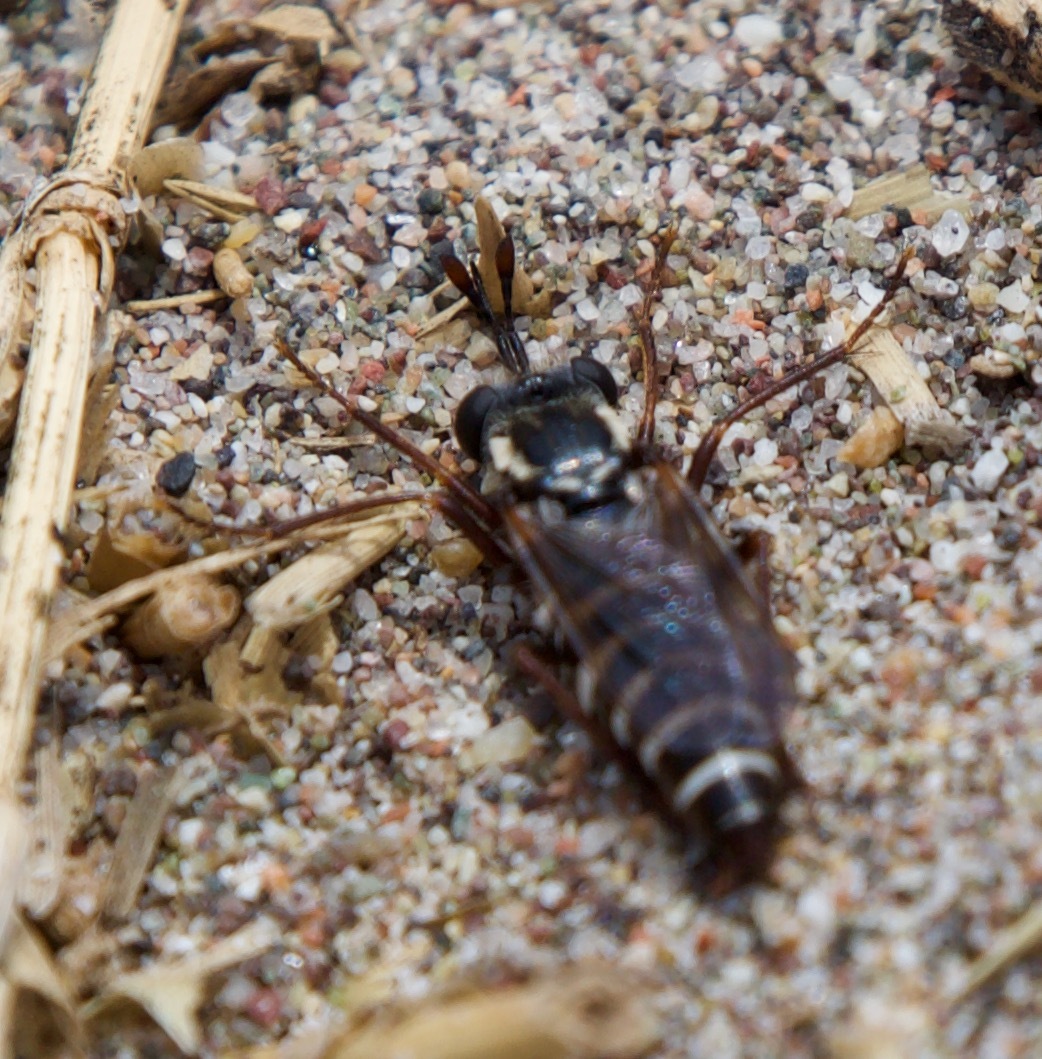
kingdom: Animalia
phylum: Arthropoda
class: Insecta
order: Diptera
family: Mydidae
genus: Mitrodetus
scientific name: Mitrodetus dentitarsis
